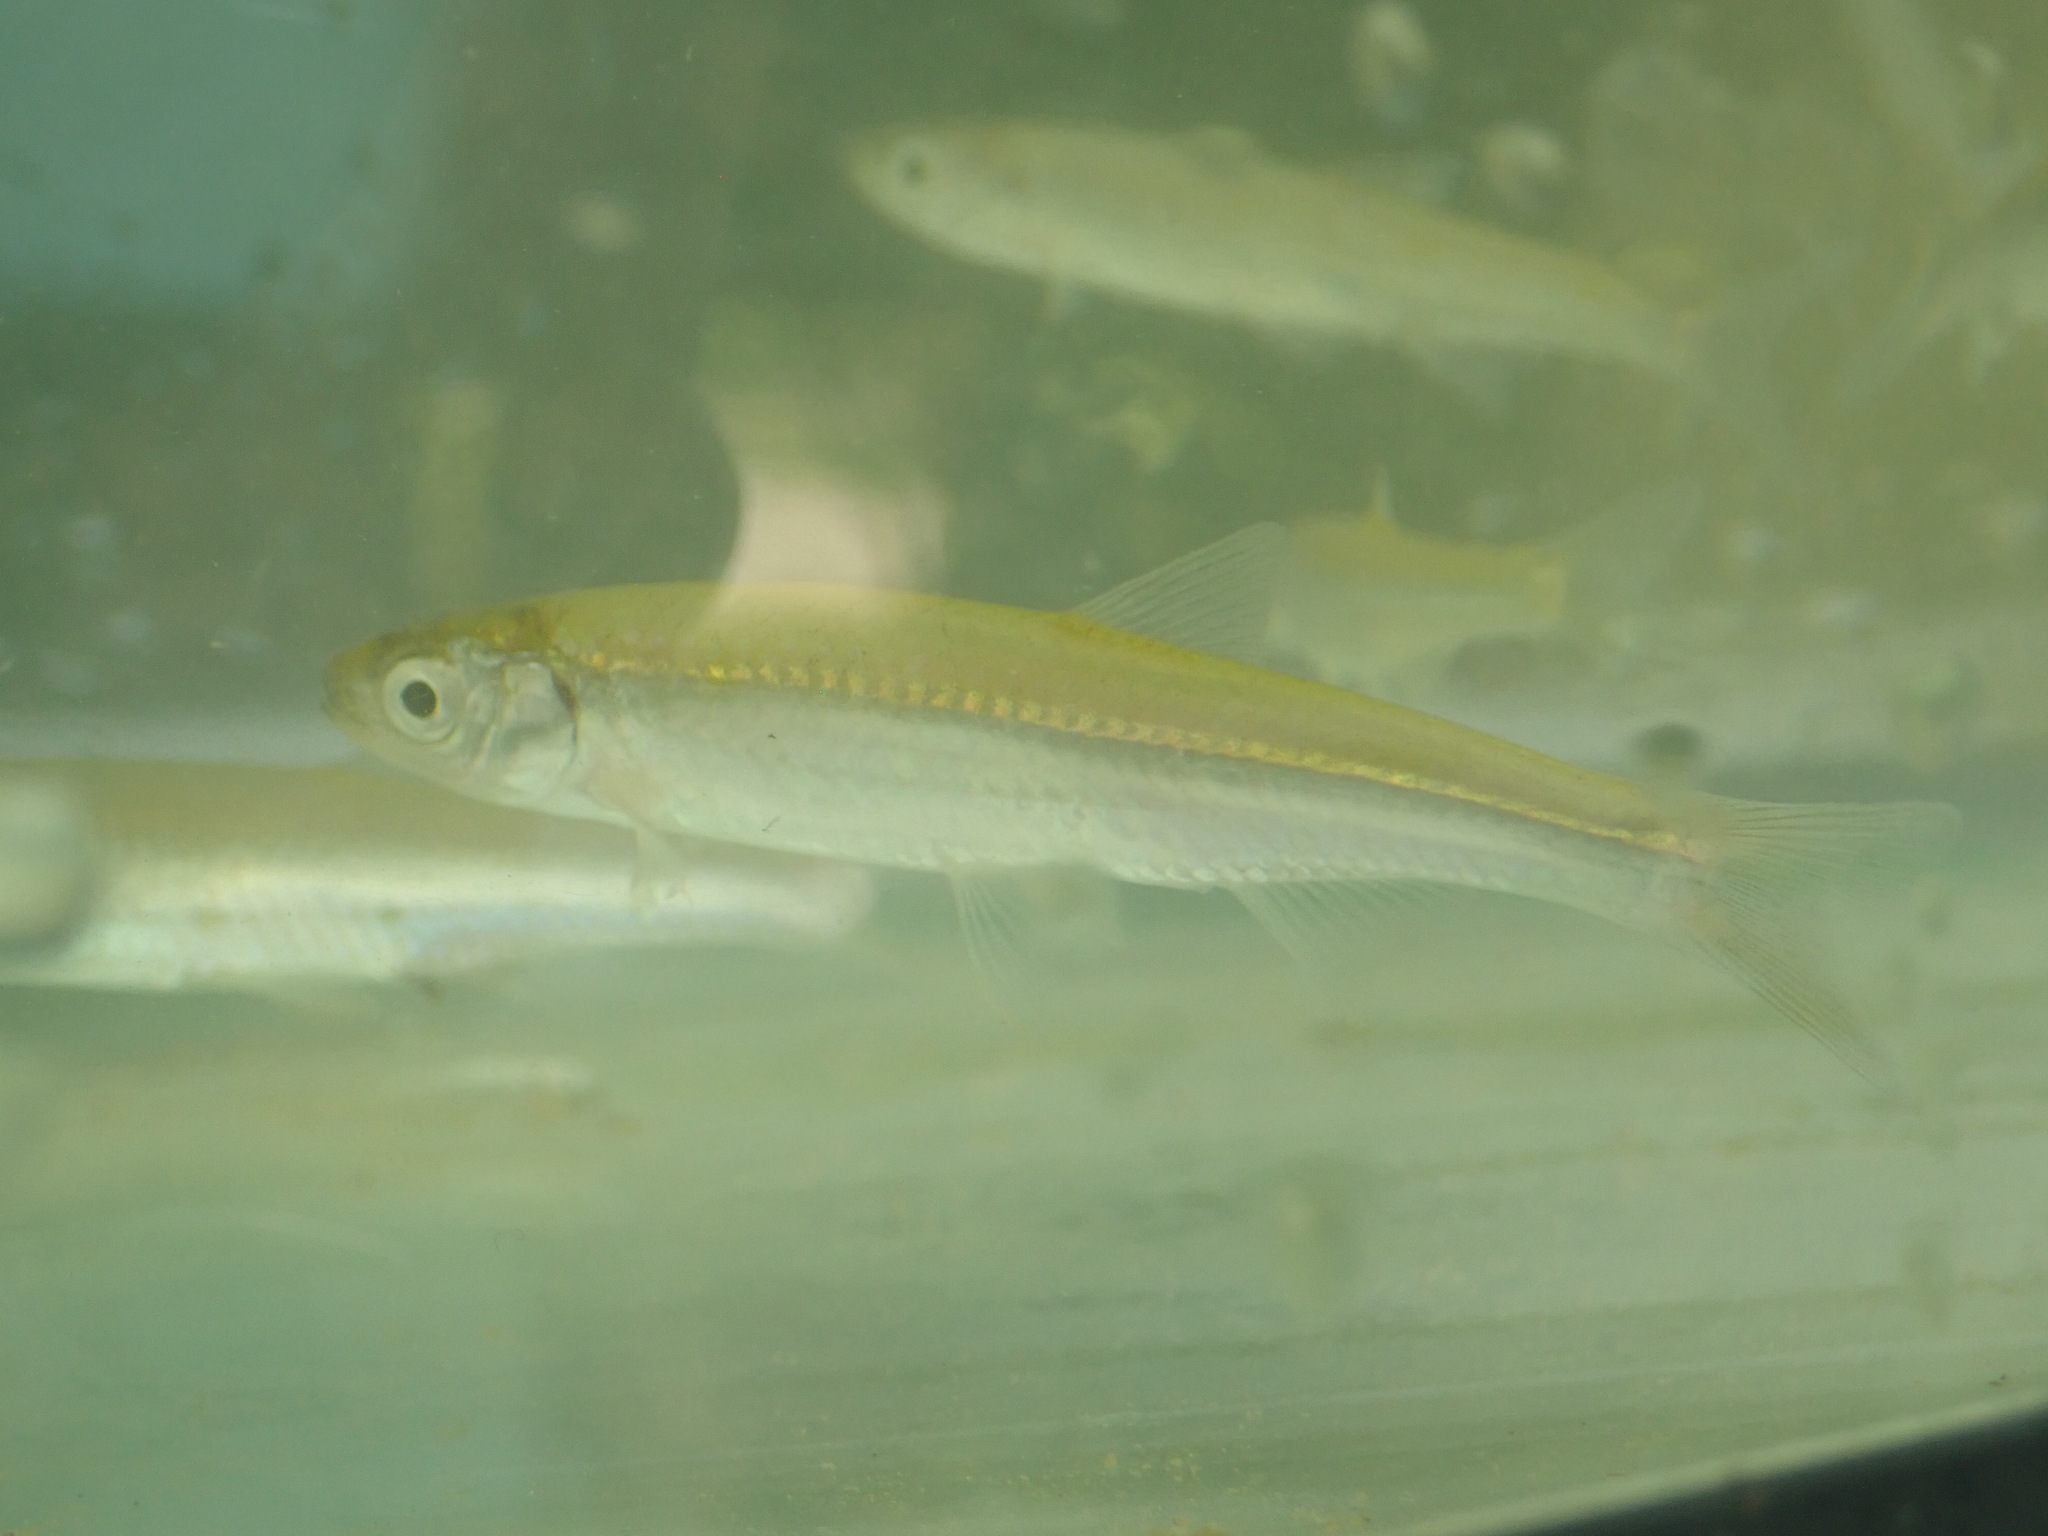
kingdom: Animalia
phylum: Chordata
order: Cypriniformes
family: Cyprinidae
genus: Notropis
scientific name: Notropis atherinoides
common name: Emerald shiner
